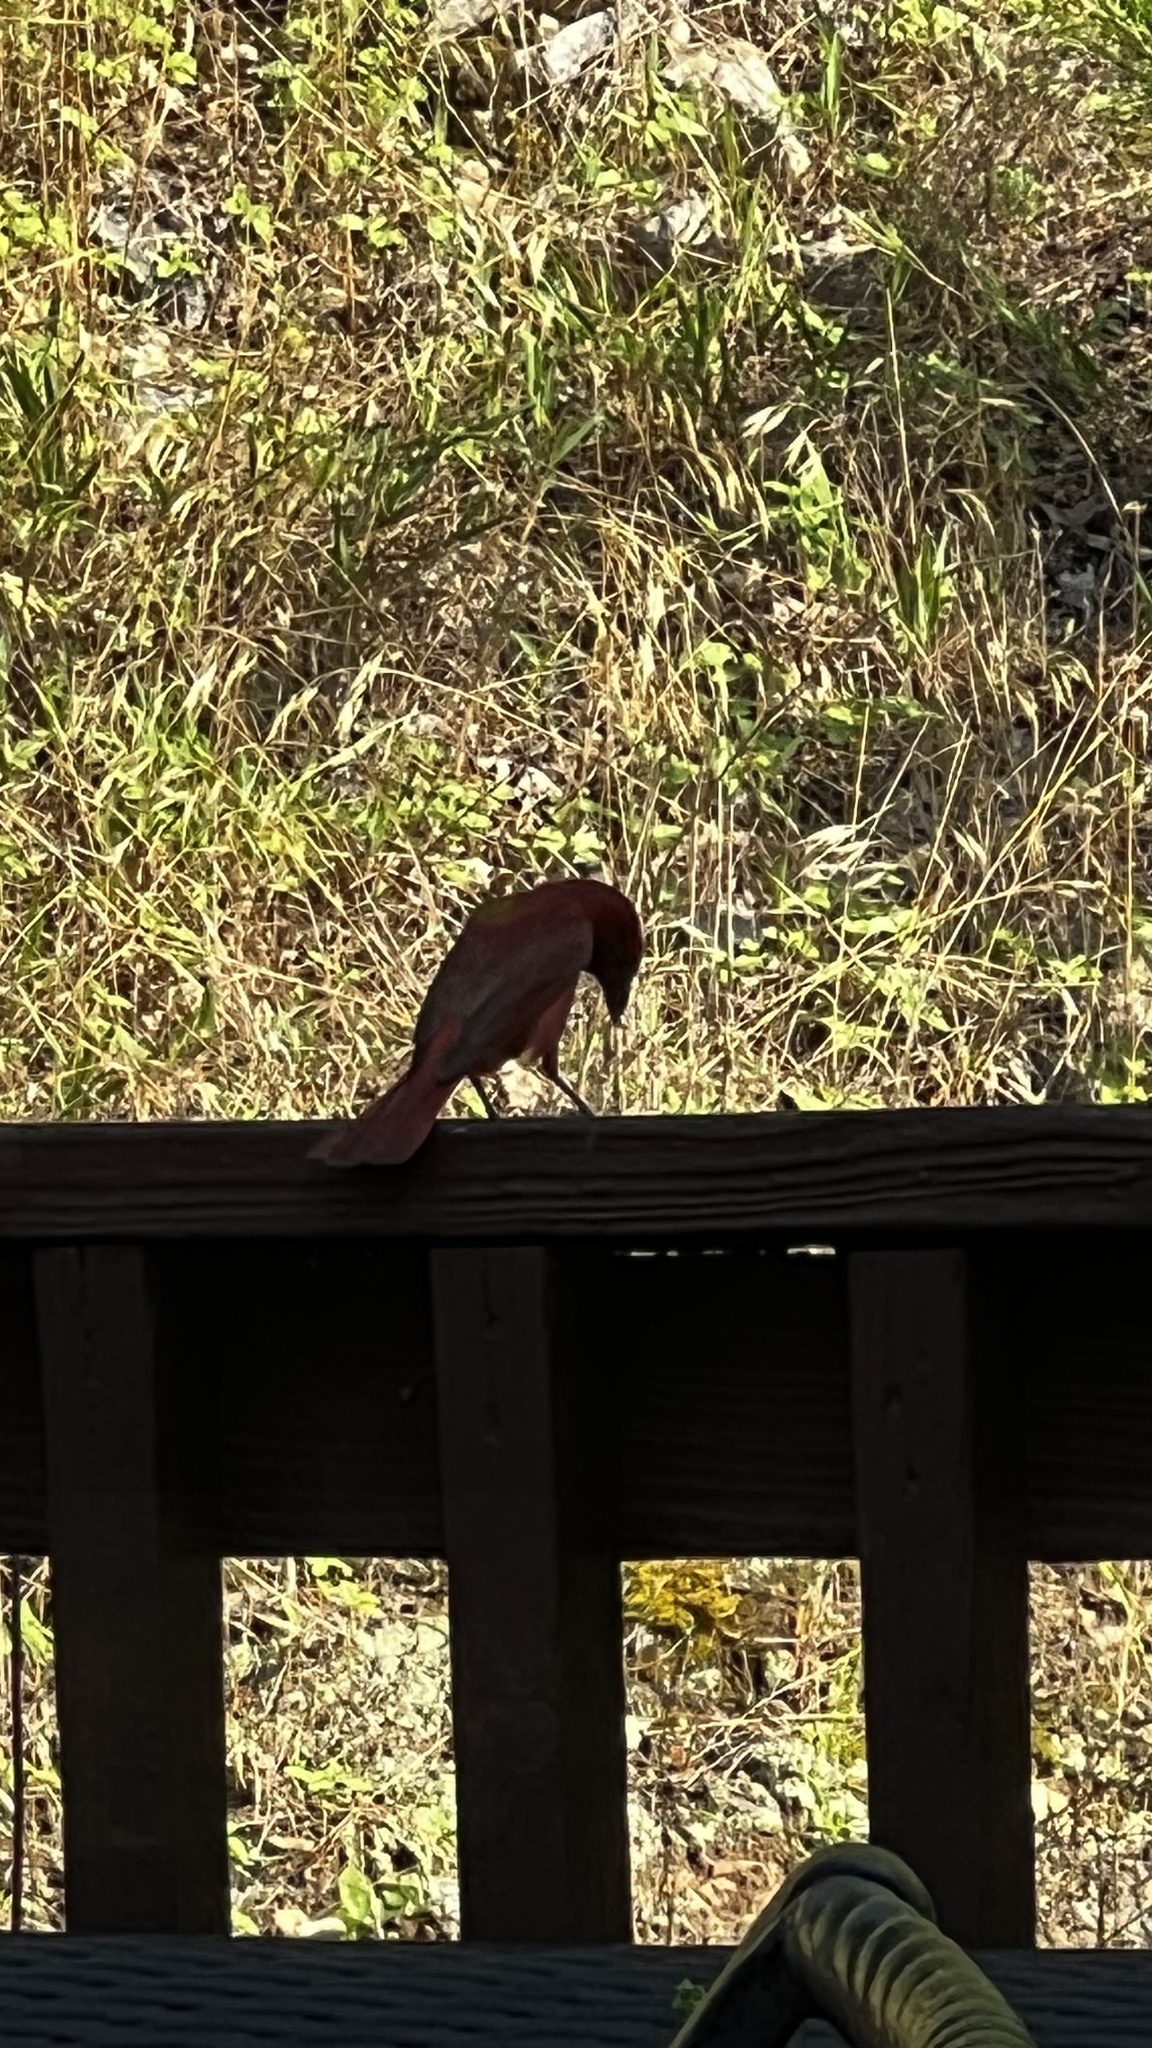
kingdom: Animalia
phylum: Chordata
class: Aves
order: Passeriformes
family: Cardinalidae
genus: Piranga
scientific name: Piranga rubra
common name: Summer tanager
